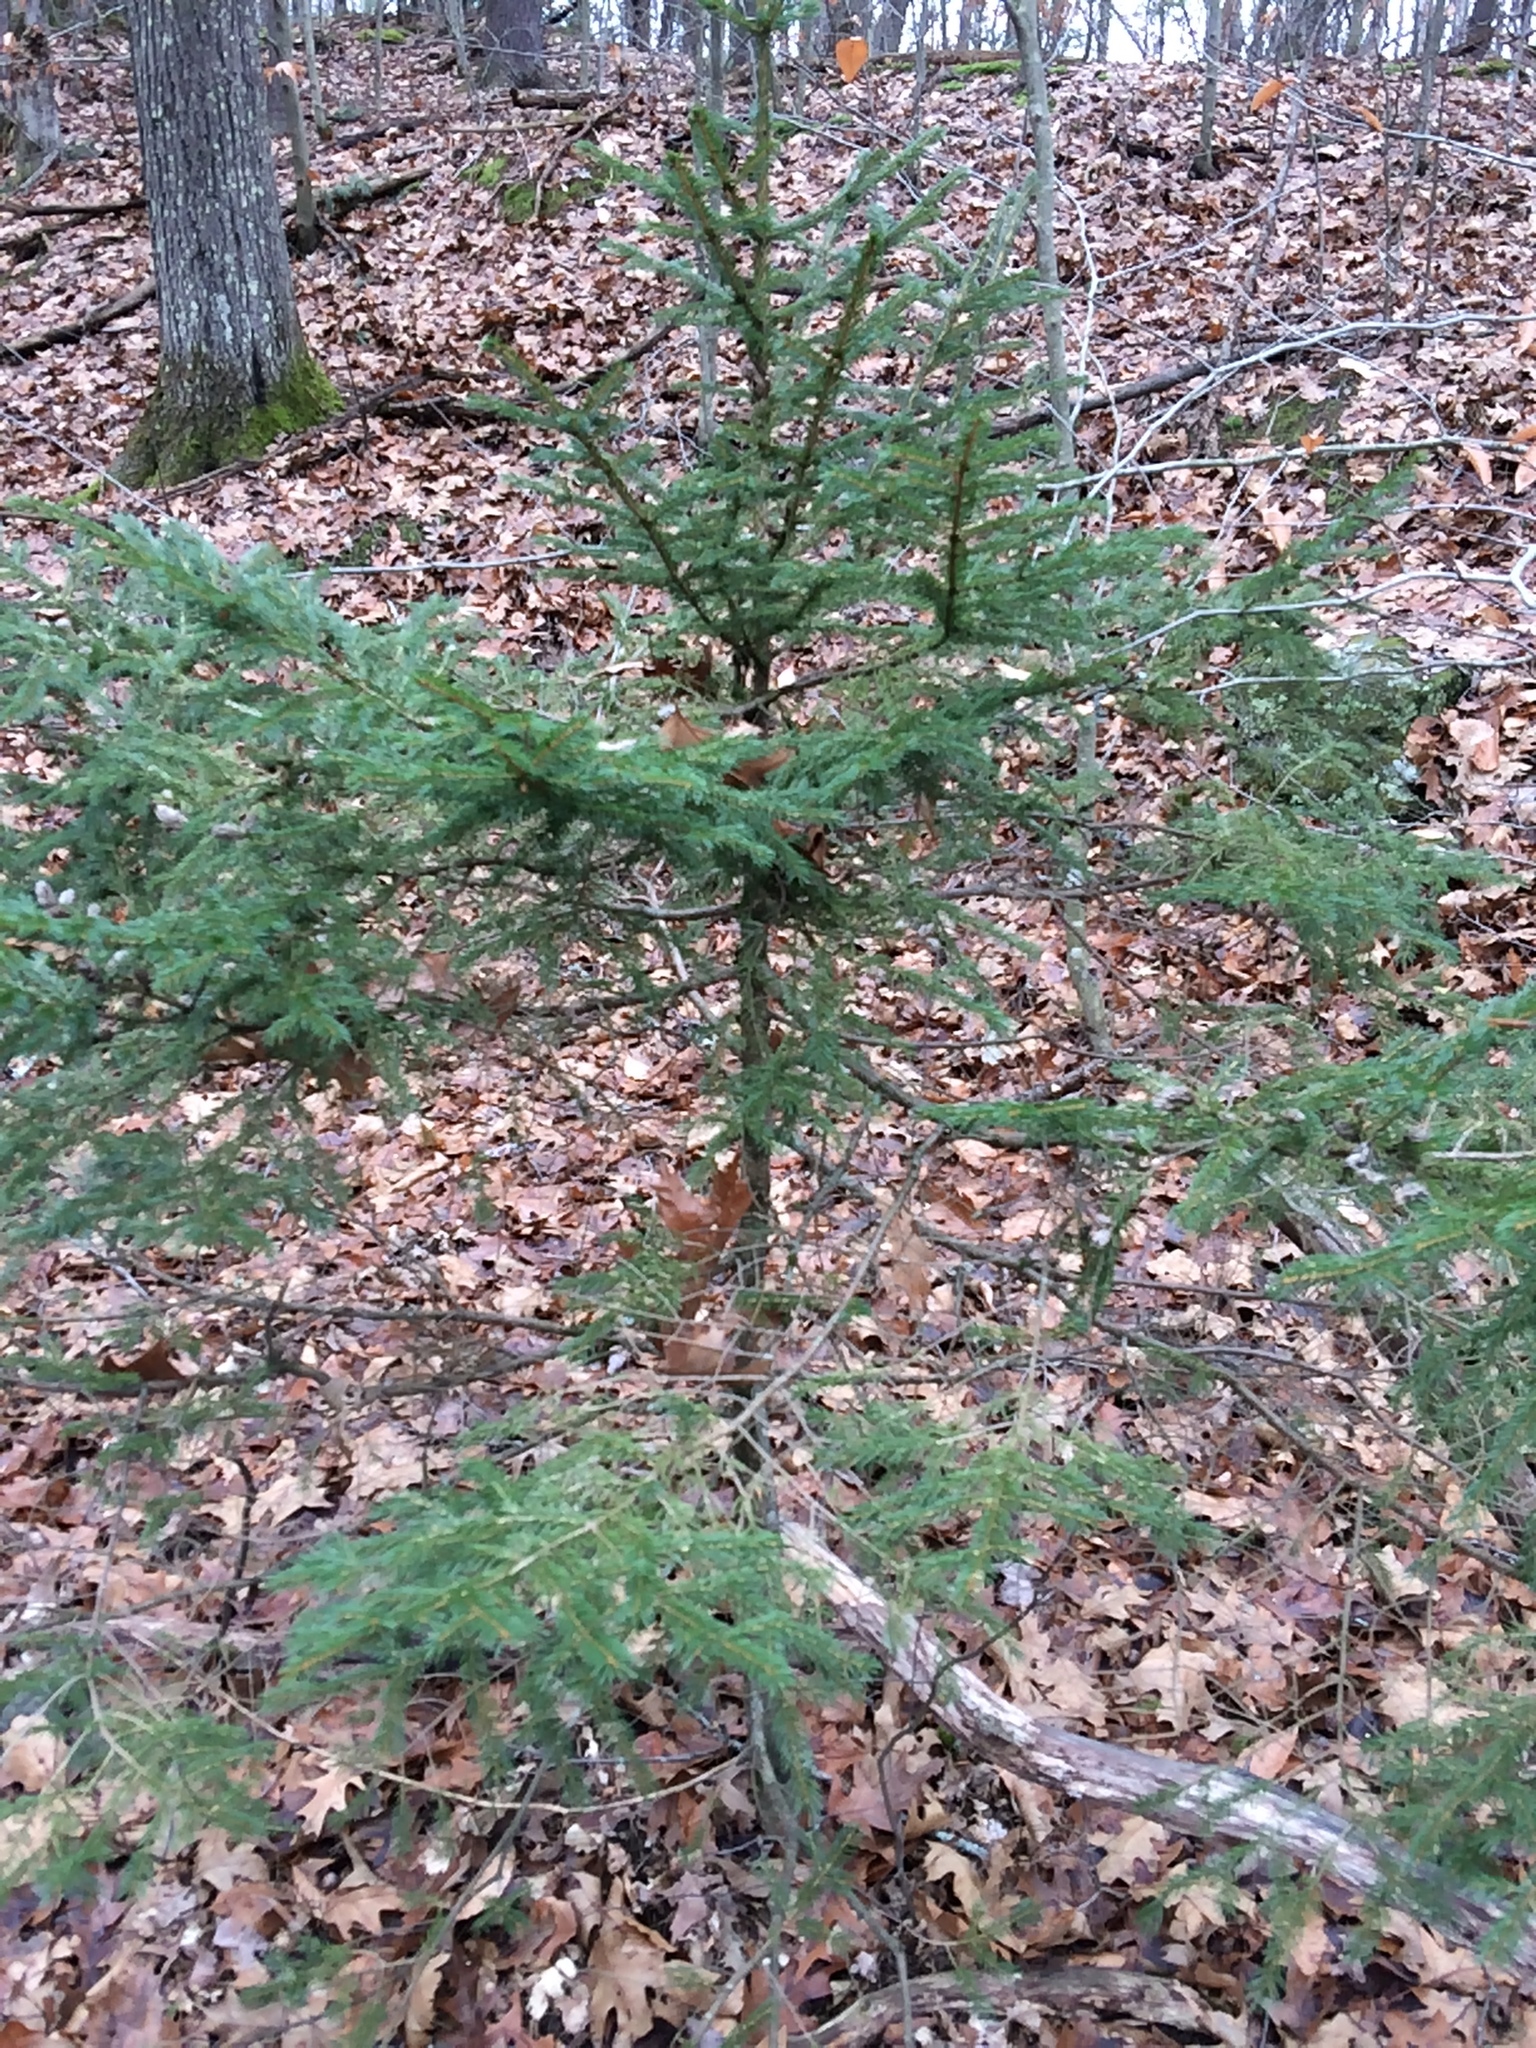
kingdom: Plantae
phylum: Tracheophyta
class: Pinopsida
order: Pinales
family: Pinaceae
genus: Picea
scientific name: Picea rubens
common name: Red spruce
